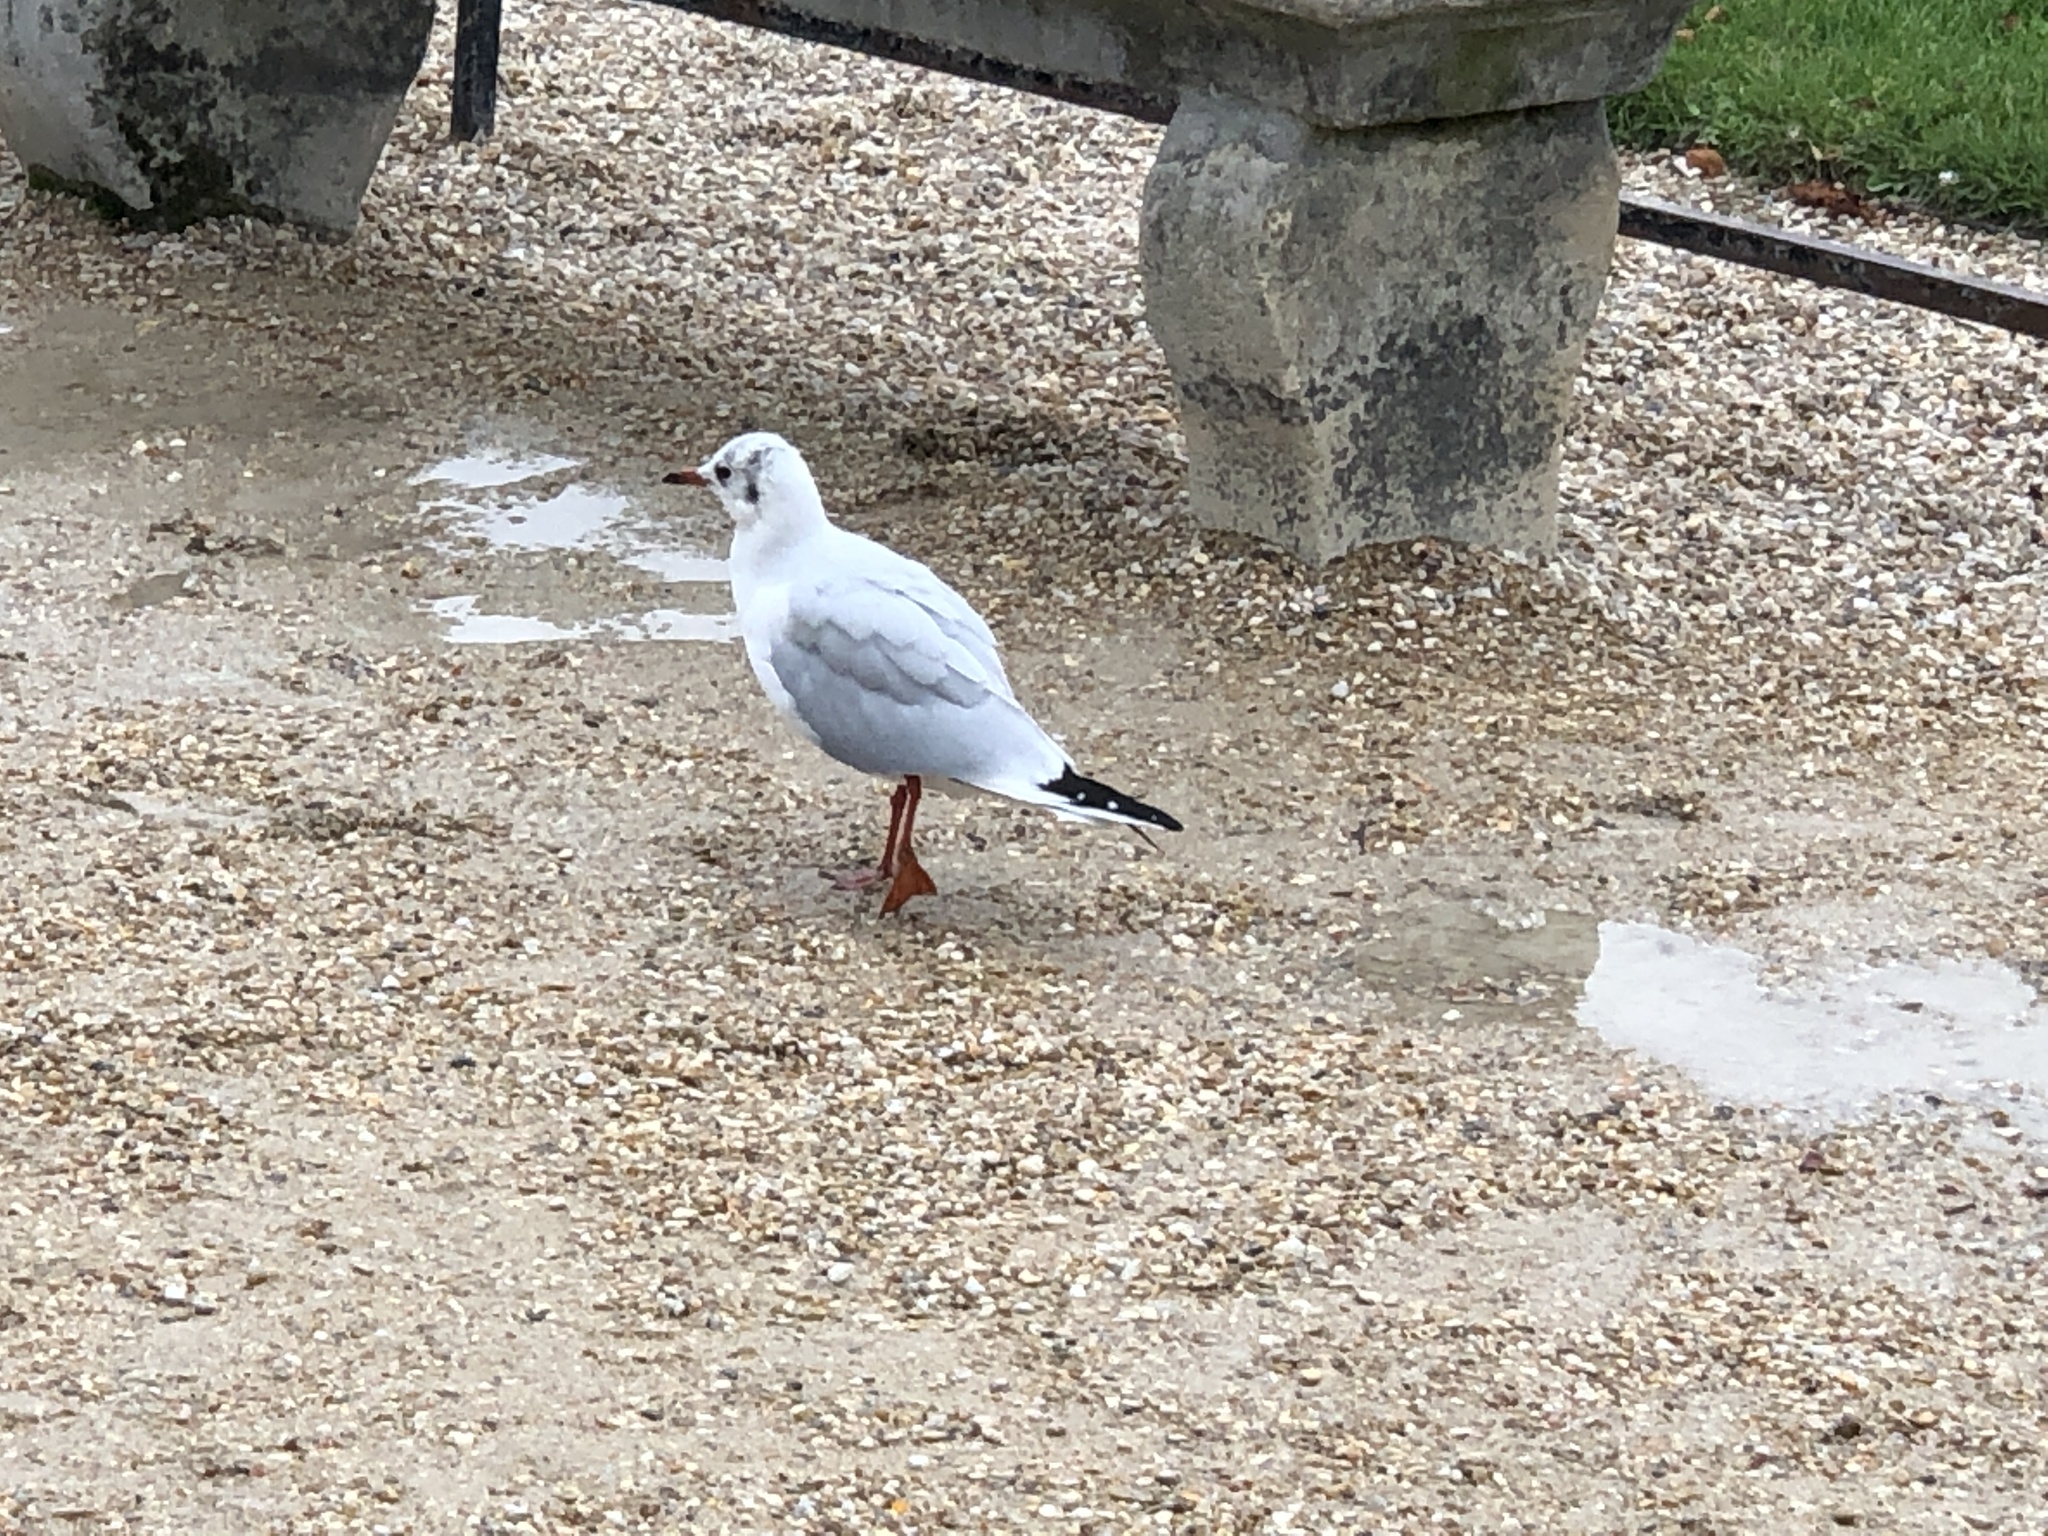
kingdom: Animalia
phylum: Chordata
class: Aves
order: Charadriiformes
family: Laridae
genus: Chroicocephalus
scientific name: Chroicocephalus ridibundus
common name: Black-headed gull
